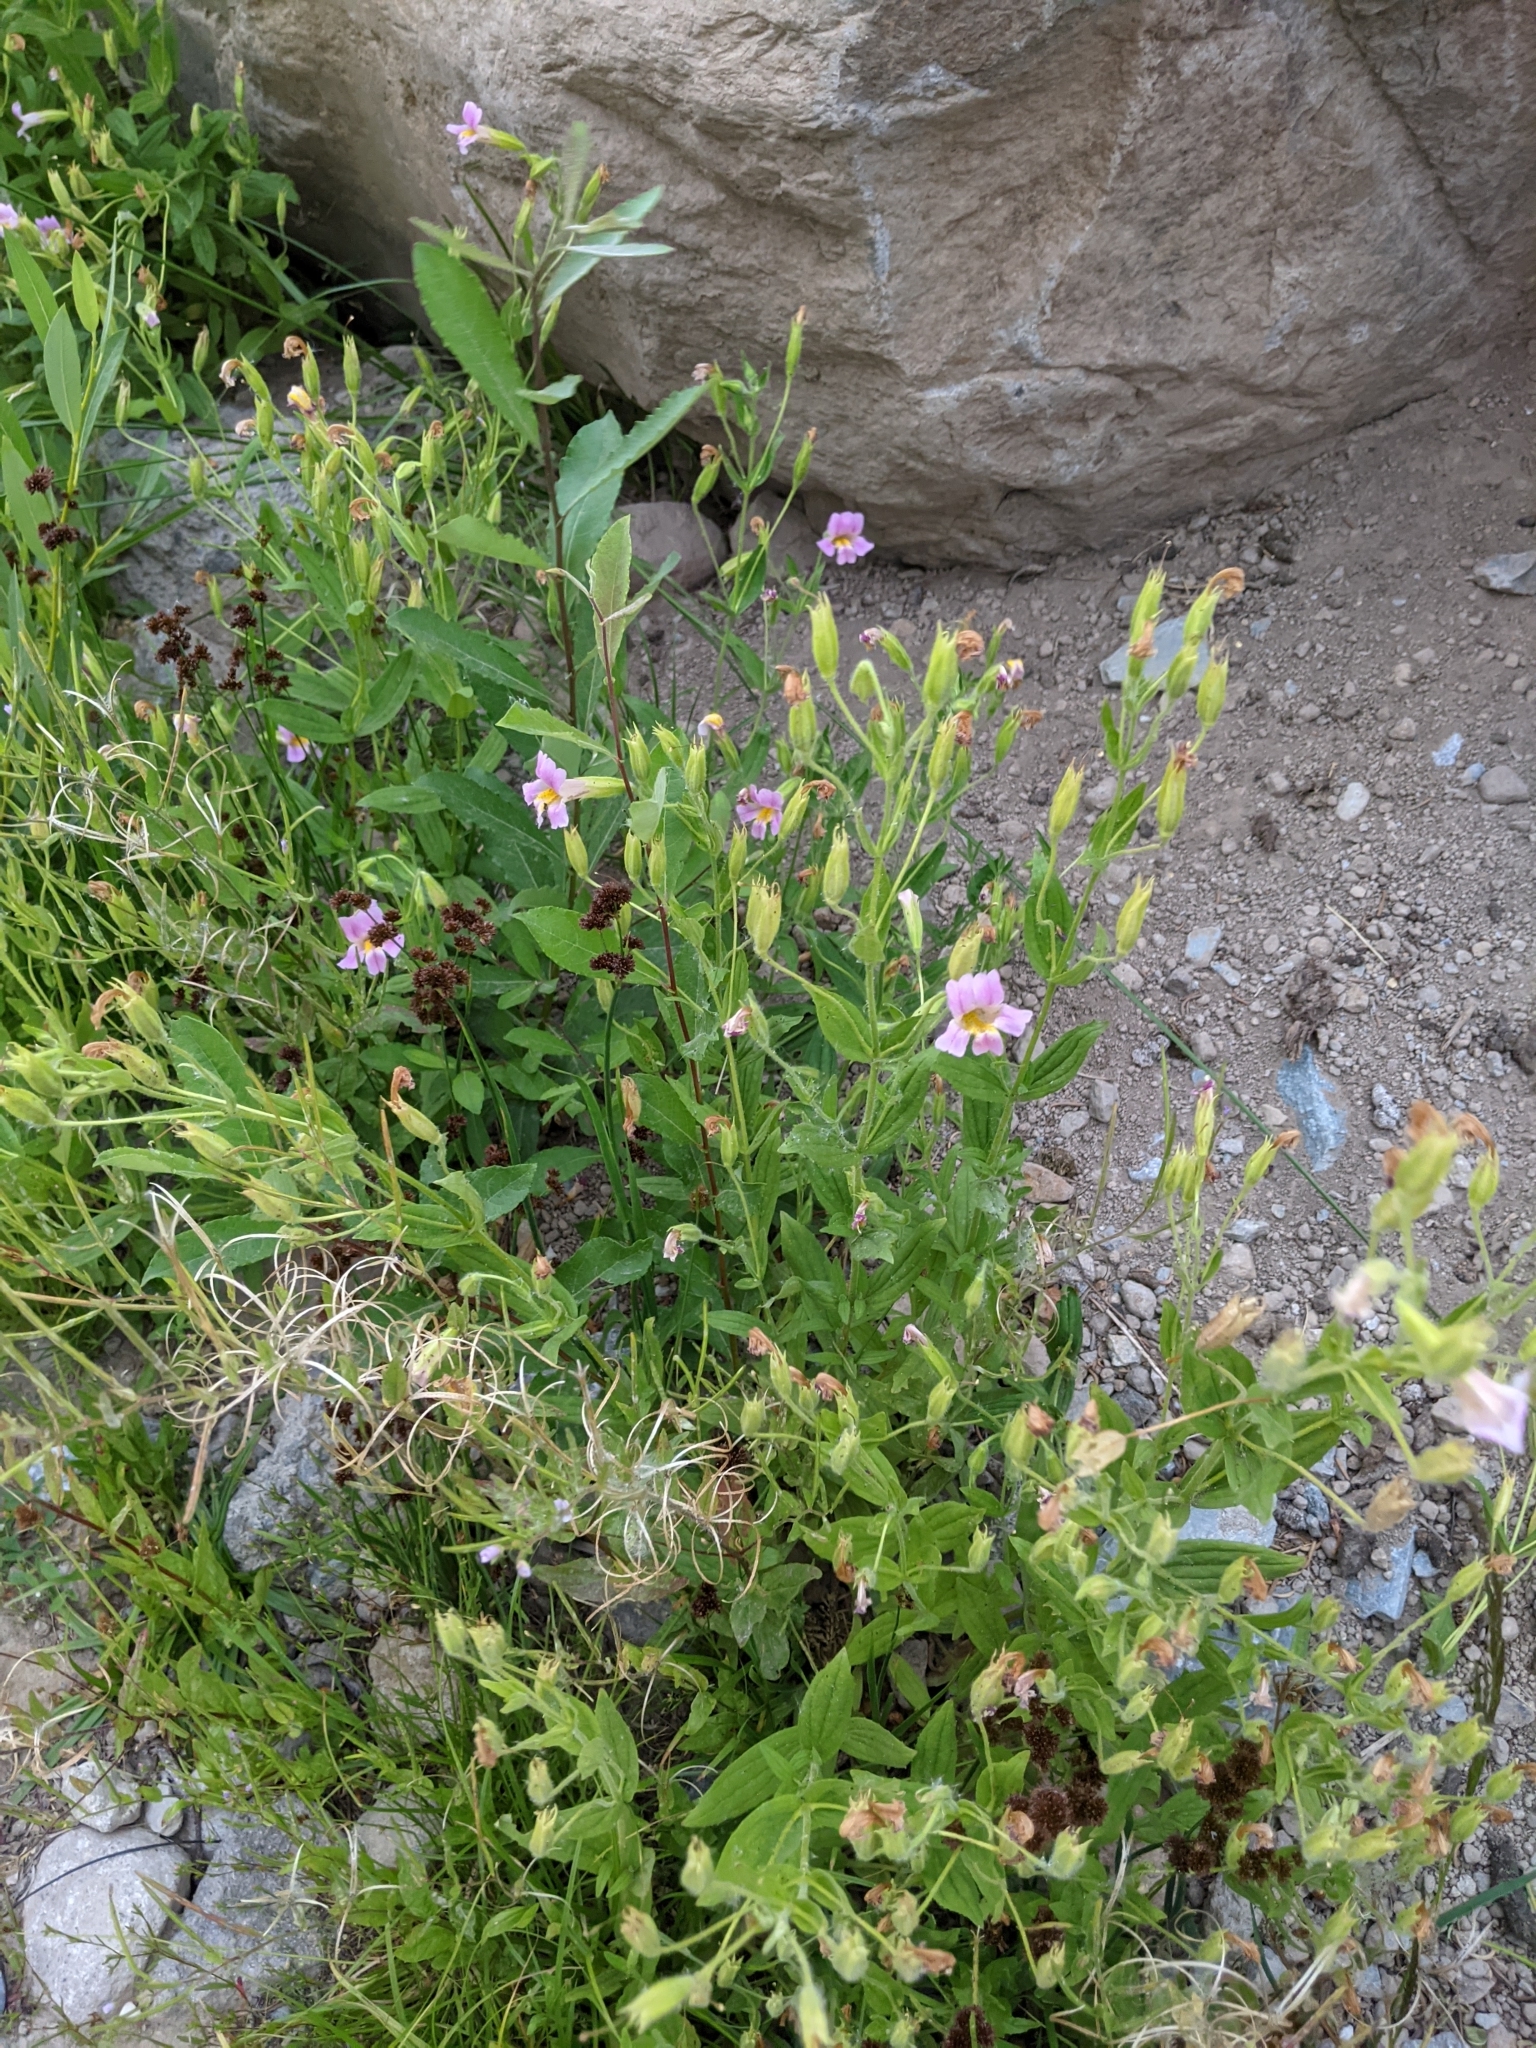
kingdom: Plantae
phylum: Tracheophyta
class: Magnoliopsida
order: Lamiales
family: Phrymaceae
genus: Erythranthe
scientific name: Erythranthe erubescens
